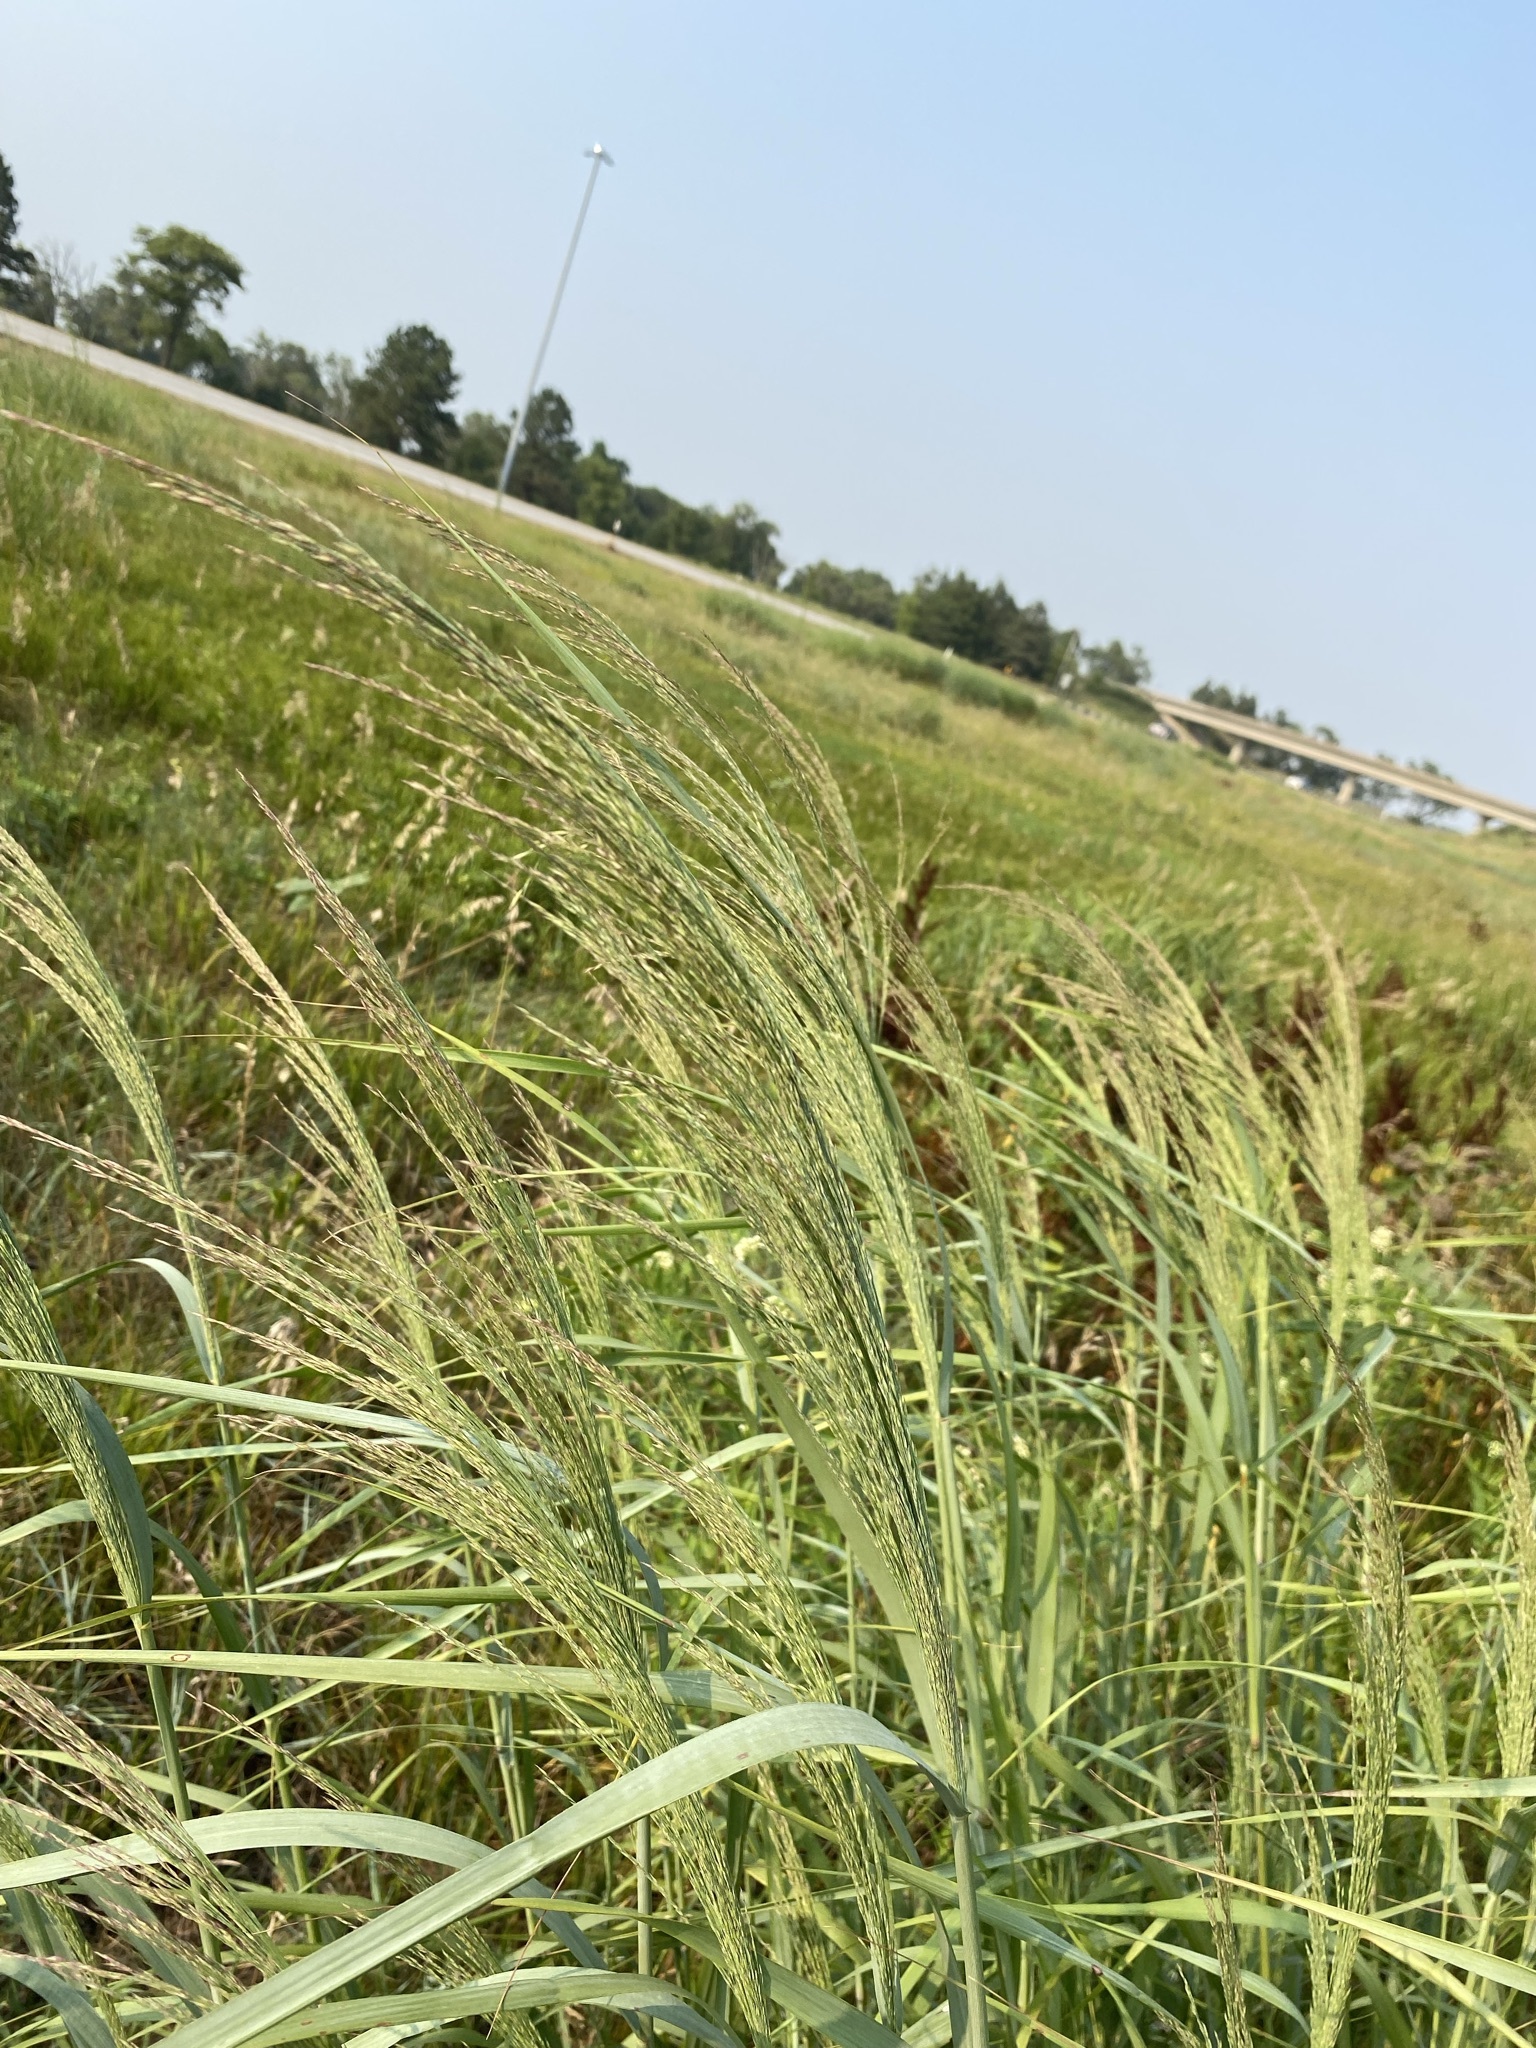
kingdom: Plantae
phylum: Tracheophyta
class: Liliopsida
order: Poales
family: Poaceae
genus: Panicum
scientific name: Panicum virgatum
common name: Switchgrass
